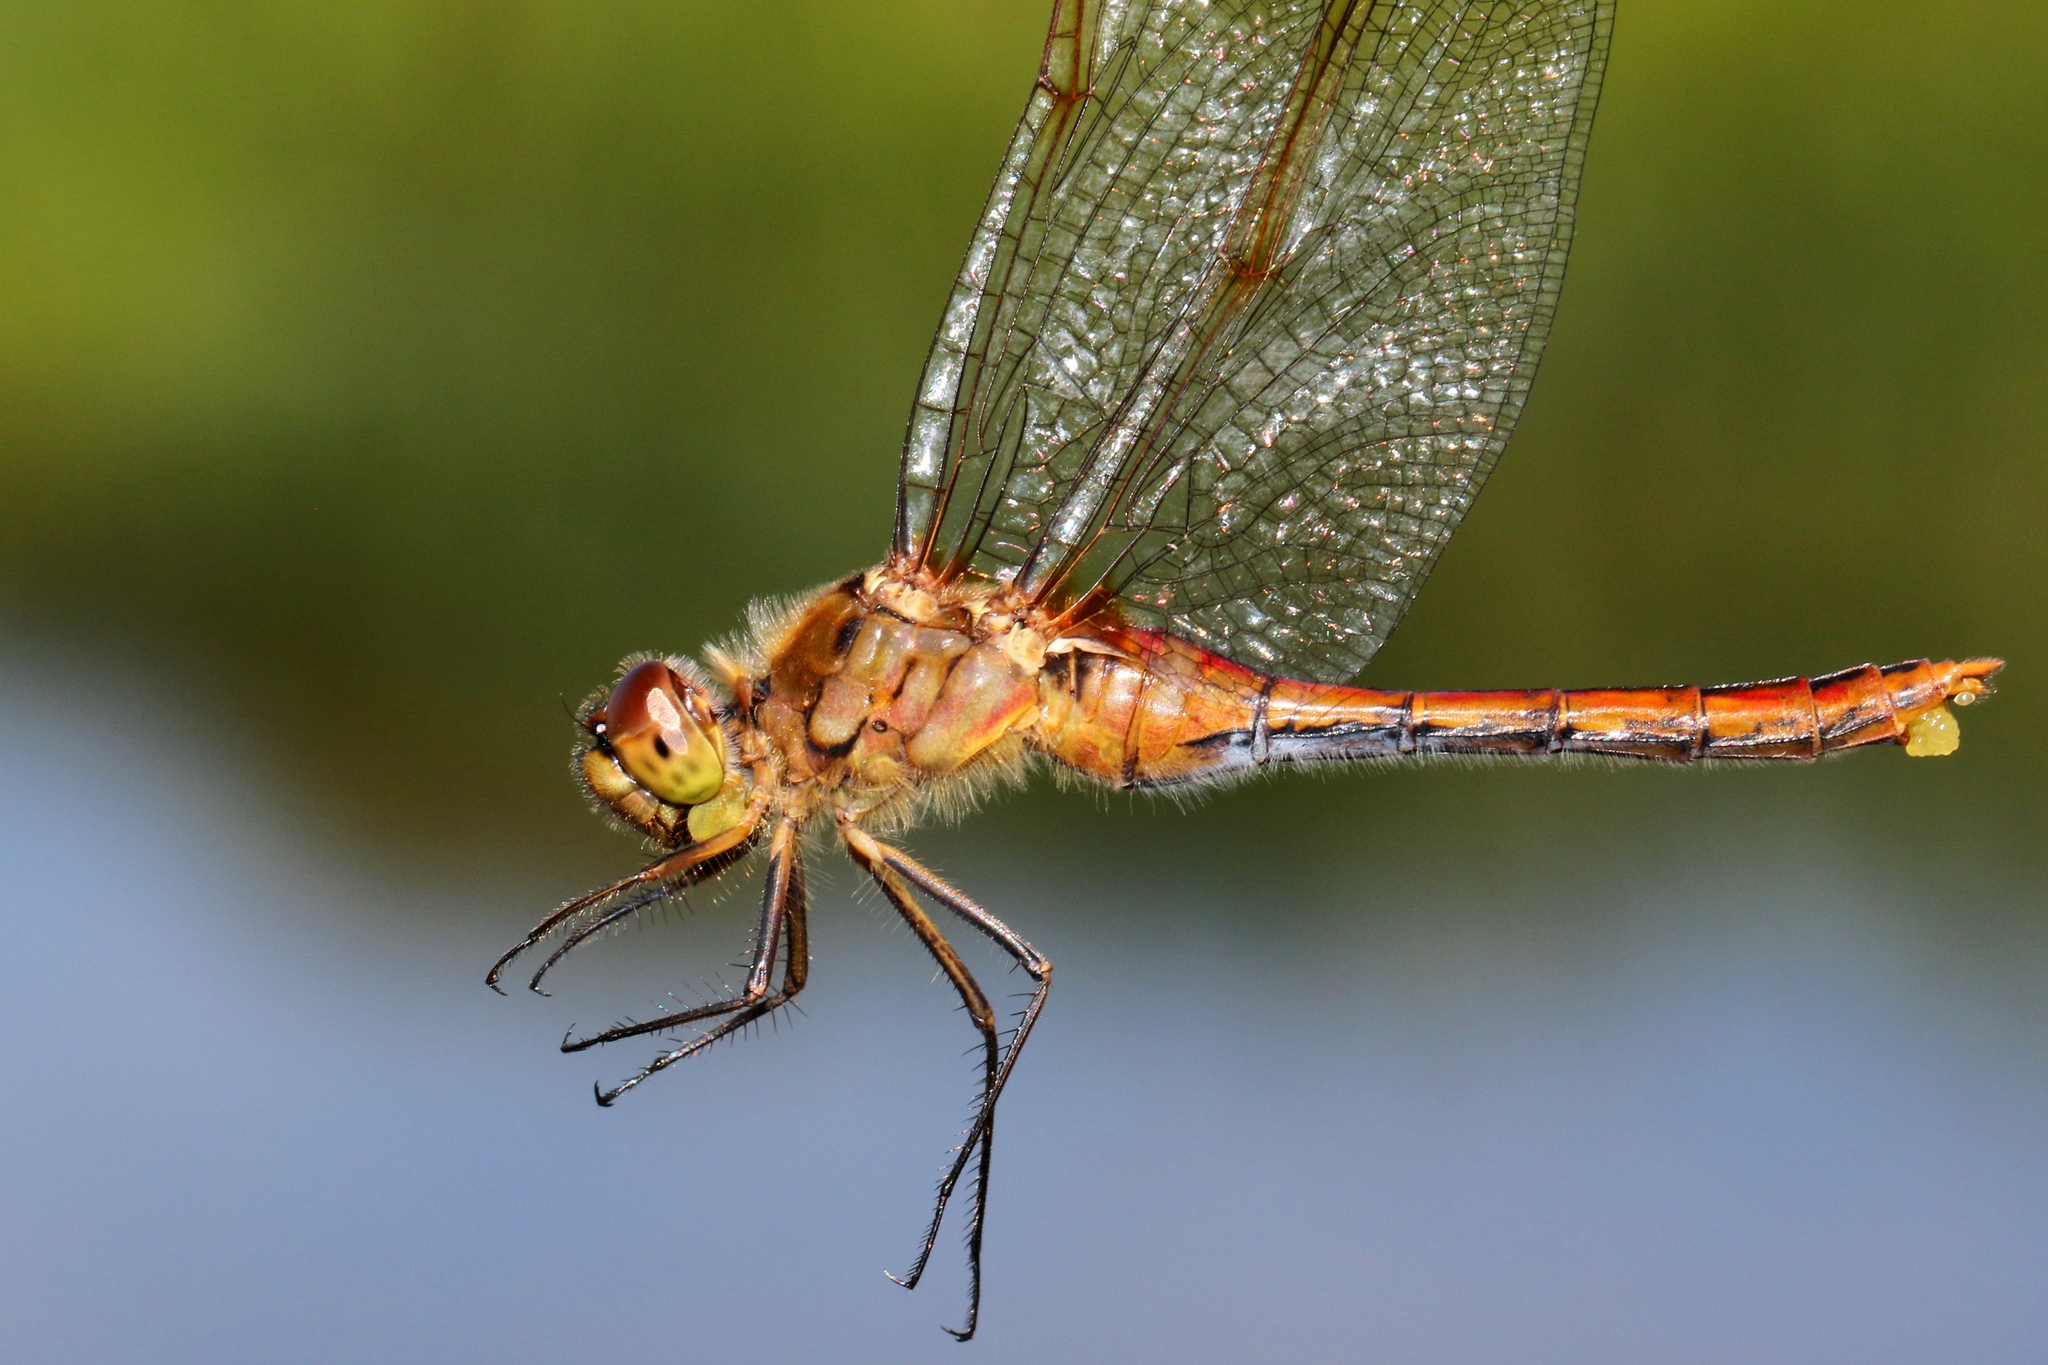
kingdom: Animalia
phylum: Arthropoda
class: Insecta
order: Odonata
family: Libellulidae
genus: Sympetrum
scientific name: Sympetrum costiferum
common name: Saffron-winged meadowhawk
